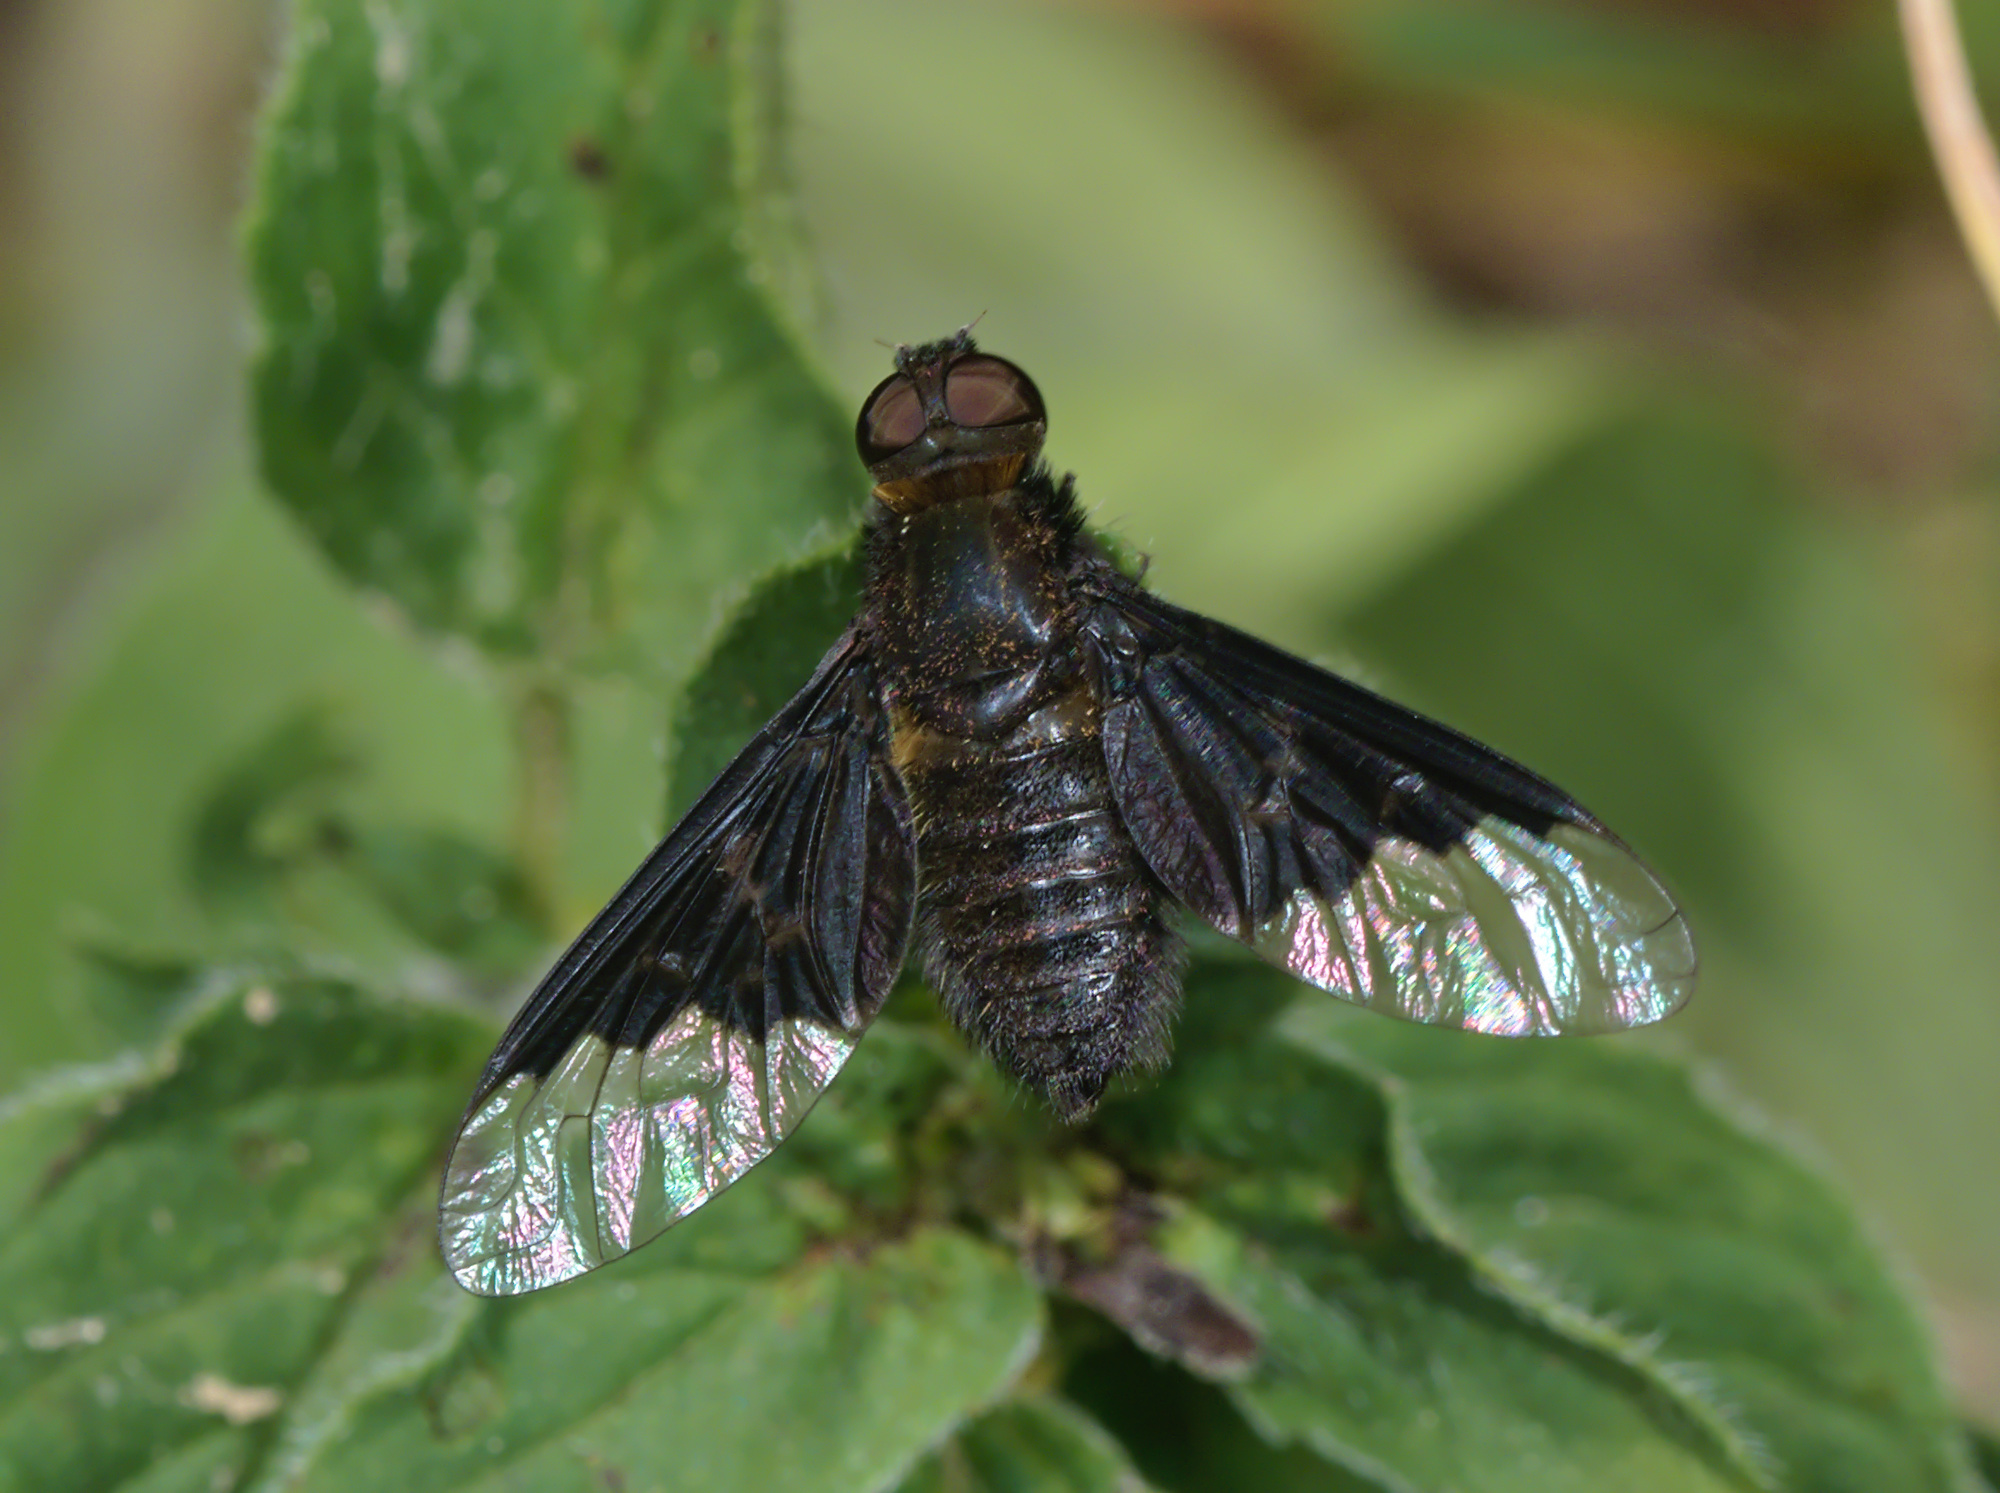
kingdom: Animalia
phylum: Arthropoda
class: Insecta
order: Diptera
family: Bombyliidae
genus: Hemipenthes
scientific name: Hemipenthes morio
